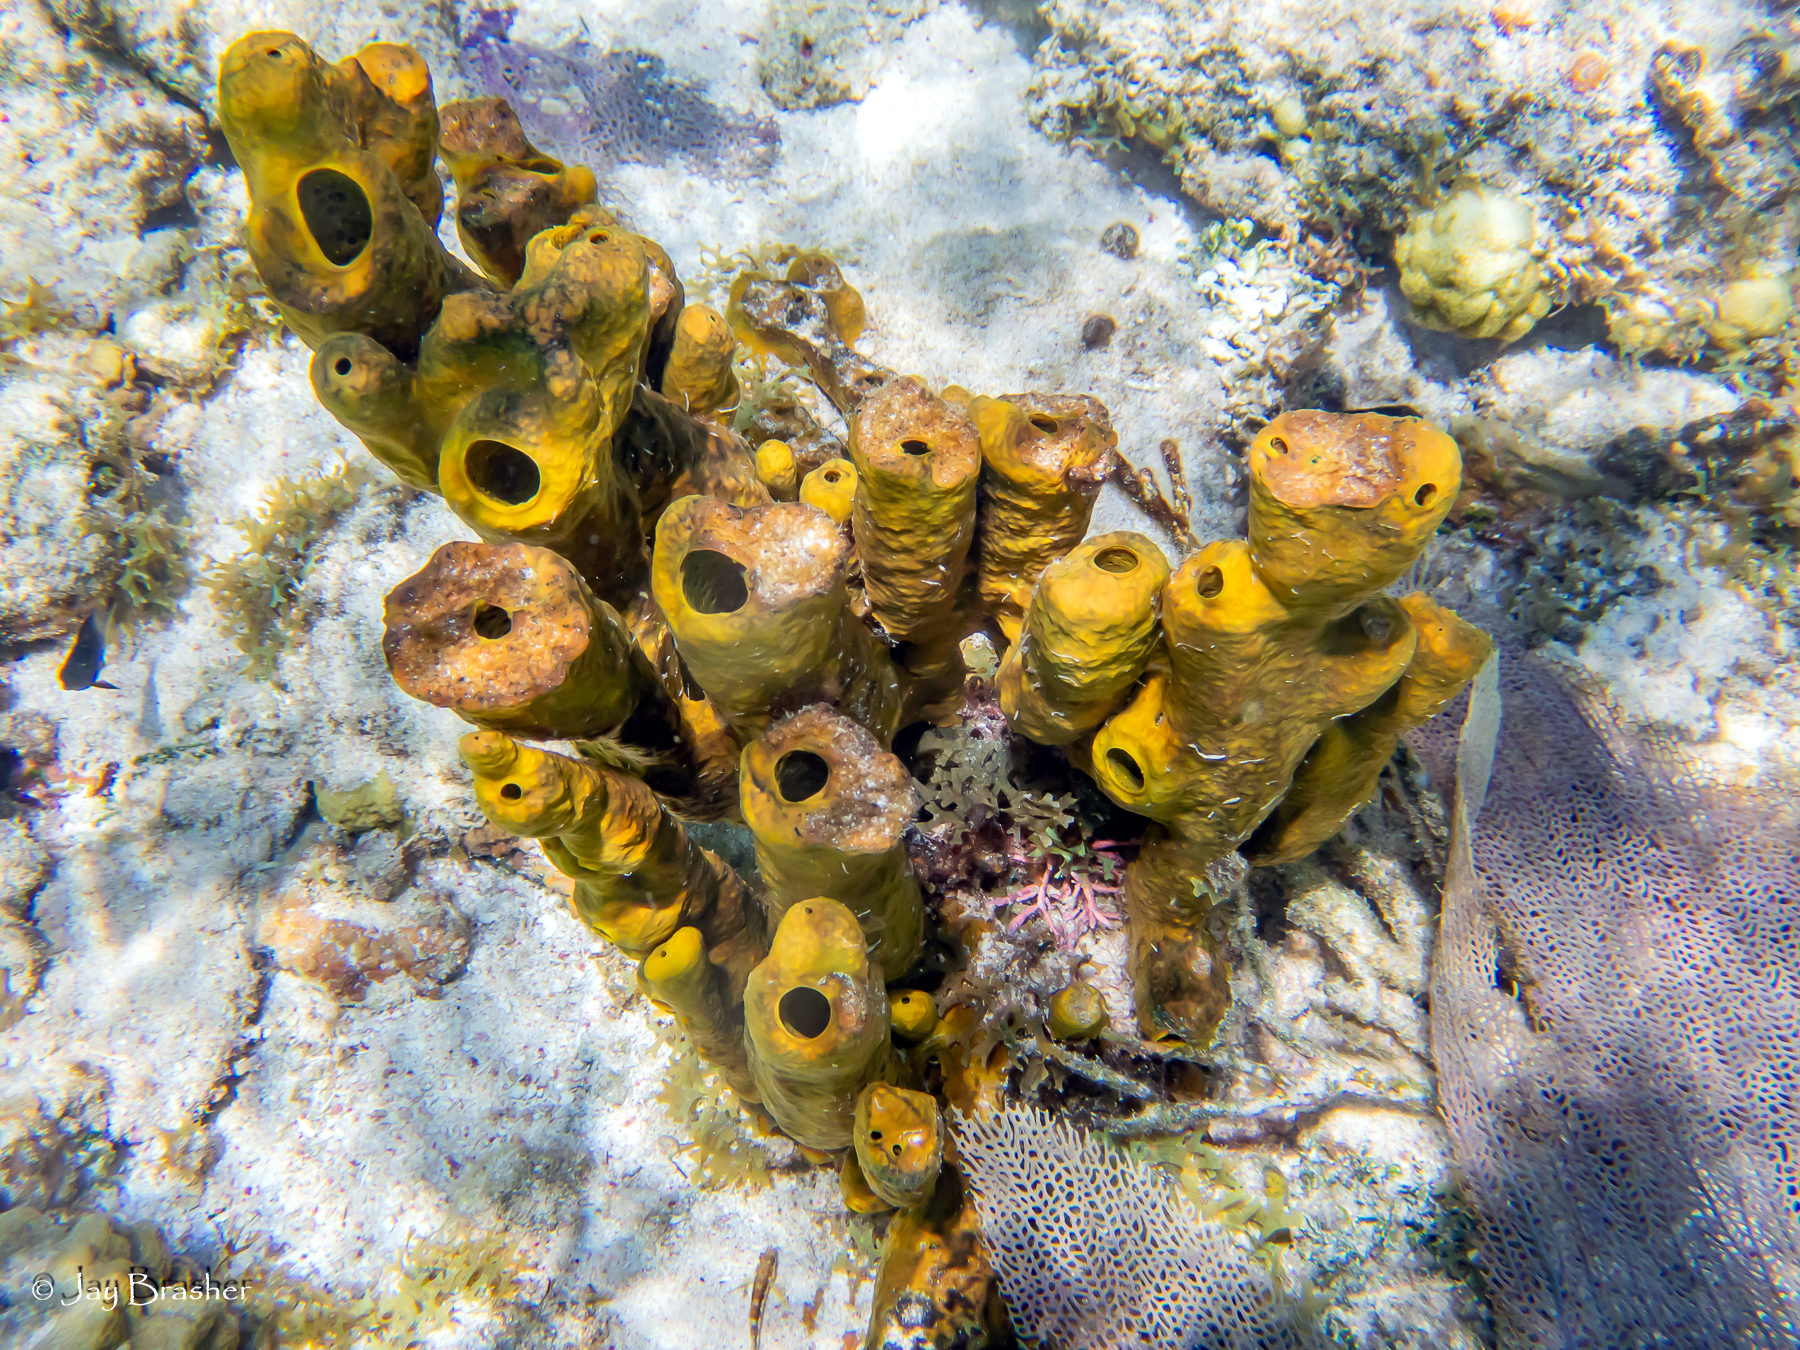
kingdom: Animalia
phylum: Porifera
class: Demospongiae
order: Verongiida
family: Aplysinidae
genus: Aplysina
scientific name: Aplysina fistularis
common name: Candle sponge
